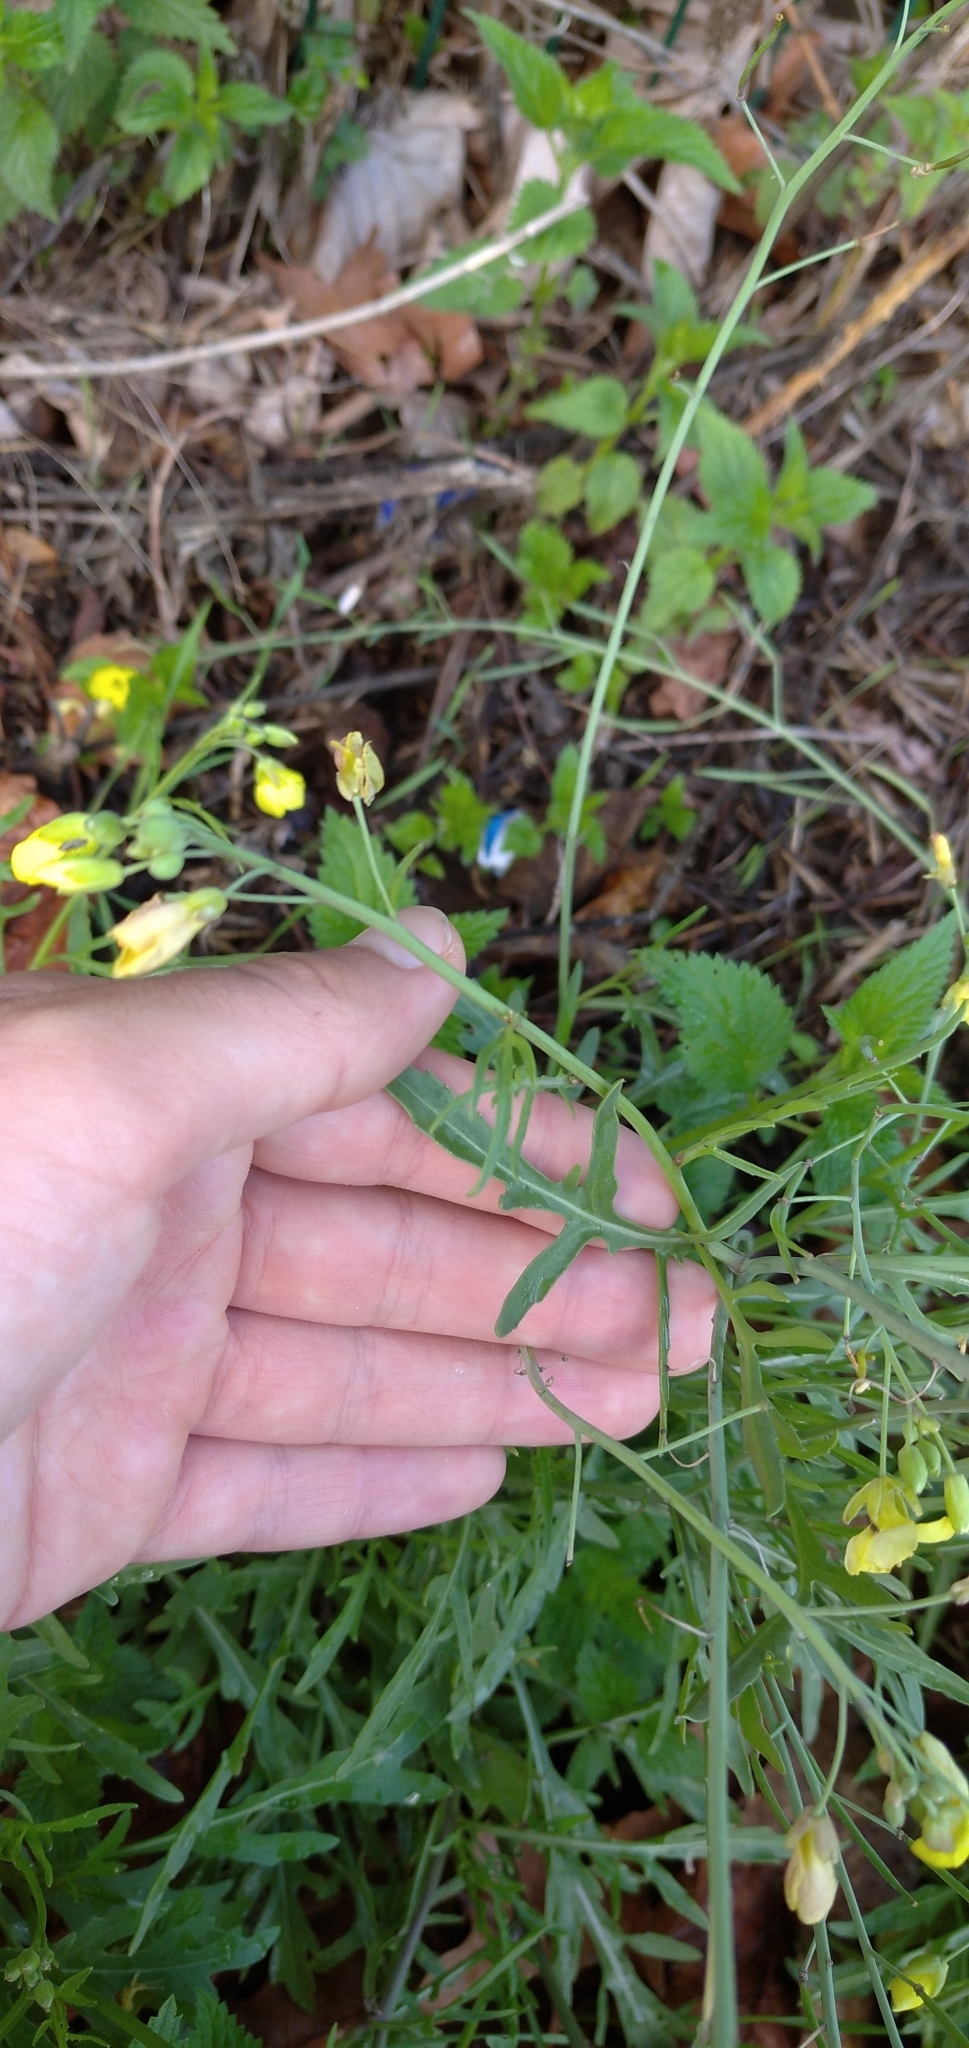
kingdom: Plantae
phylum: Tracheophyta
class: Magnoliopsida
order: Brassicales
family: Brassicaceae
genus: Diplotaxis
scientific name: Diplotaxis tenuifolia
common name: Perennial wall-rocket
